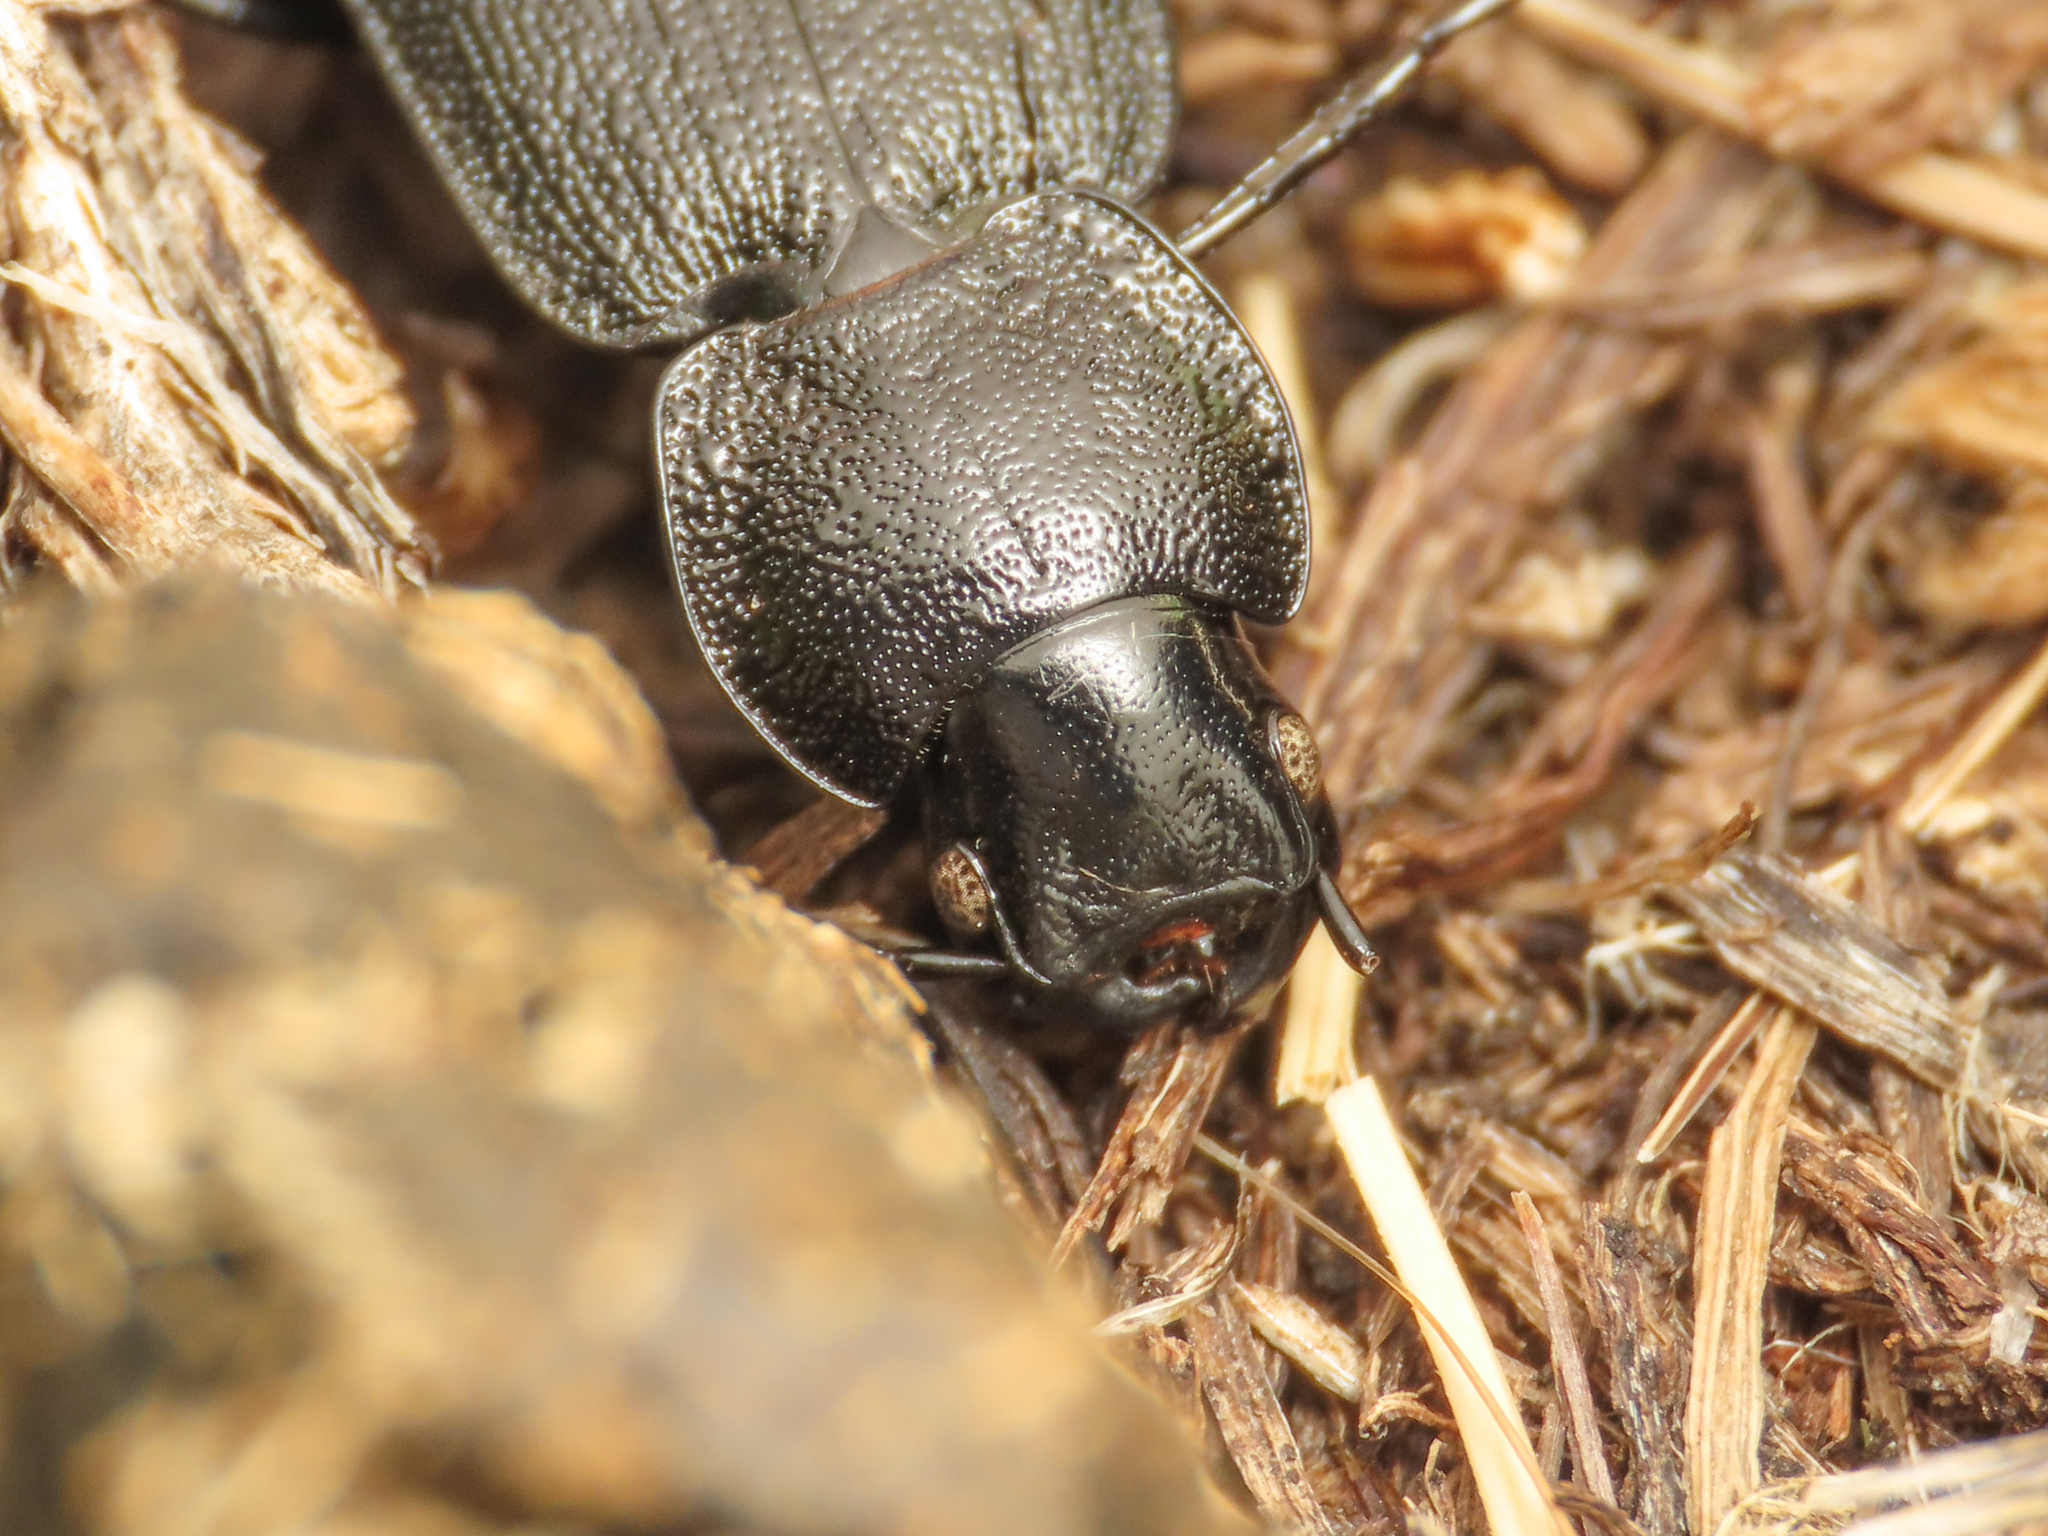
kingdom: Animalia
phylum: Arthropoda
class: Insecta
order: Coleoptera
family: Carabidae
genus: Licinus
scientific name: Licinus italicus
